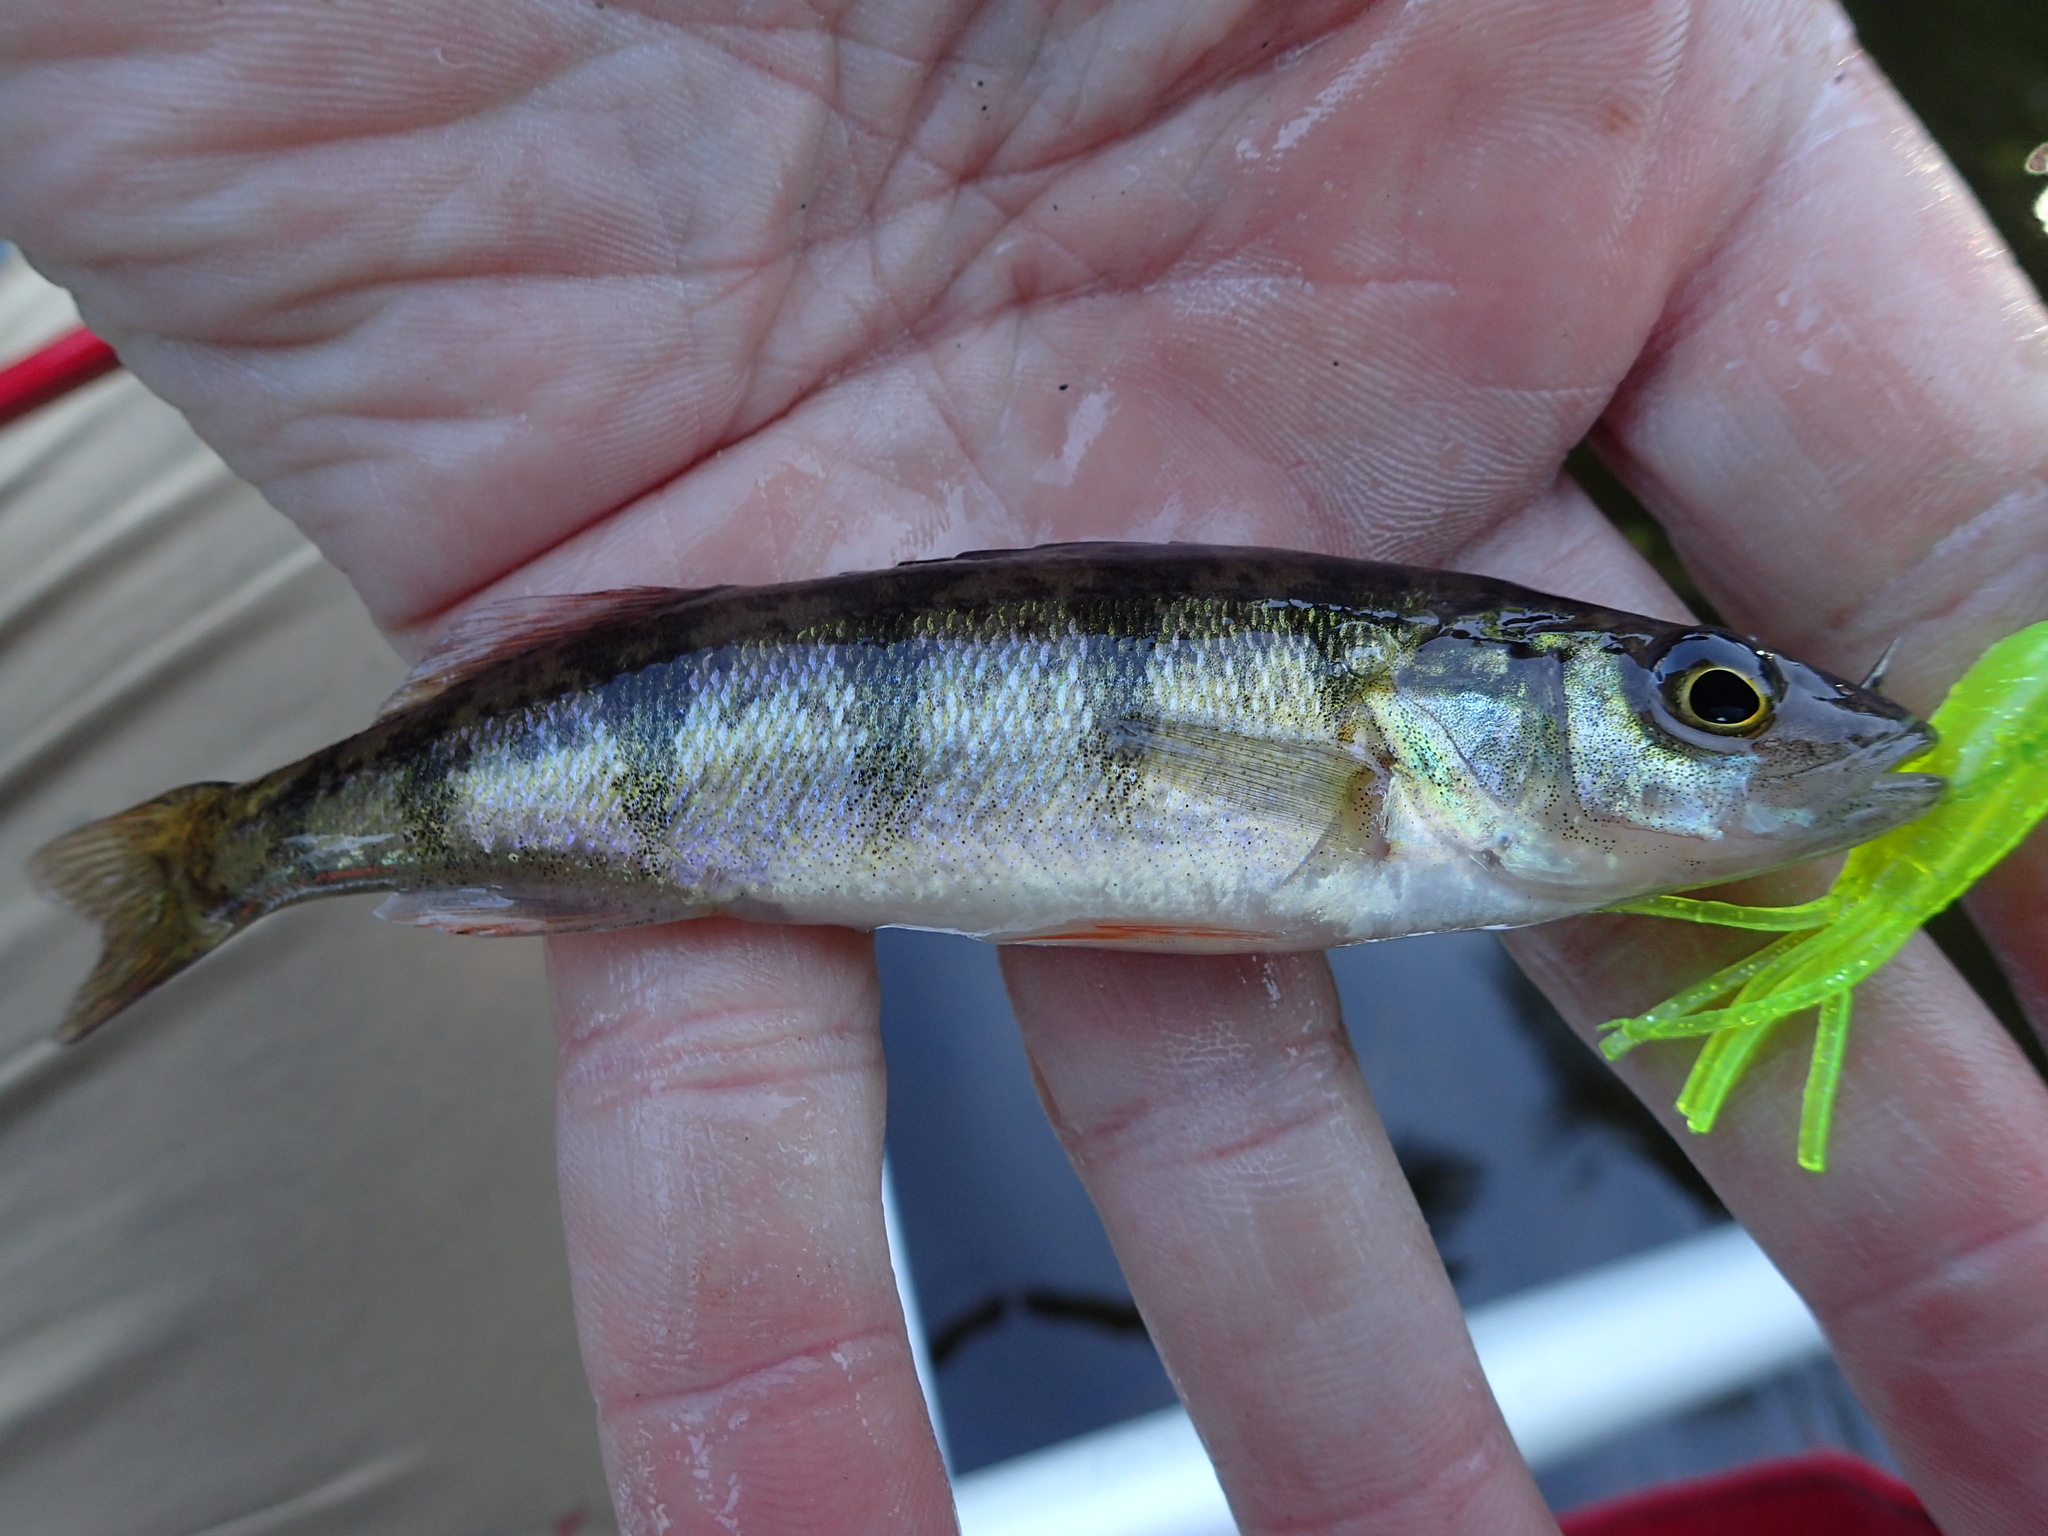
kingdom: Animalia
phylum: Chordata
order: Perciformes
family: Percidae
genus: Perca
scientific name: Perca flavescens
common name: Yellow perch
